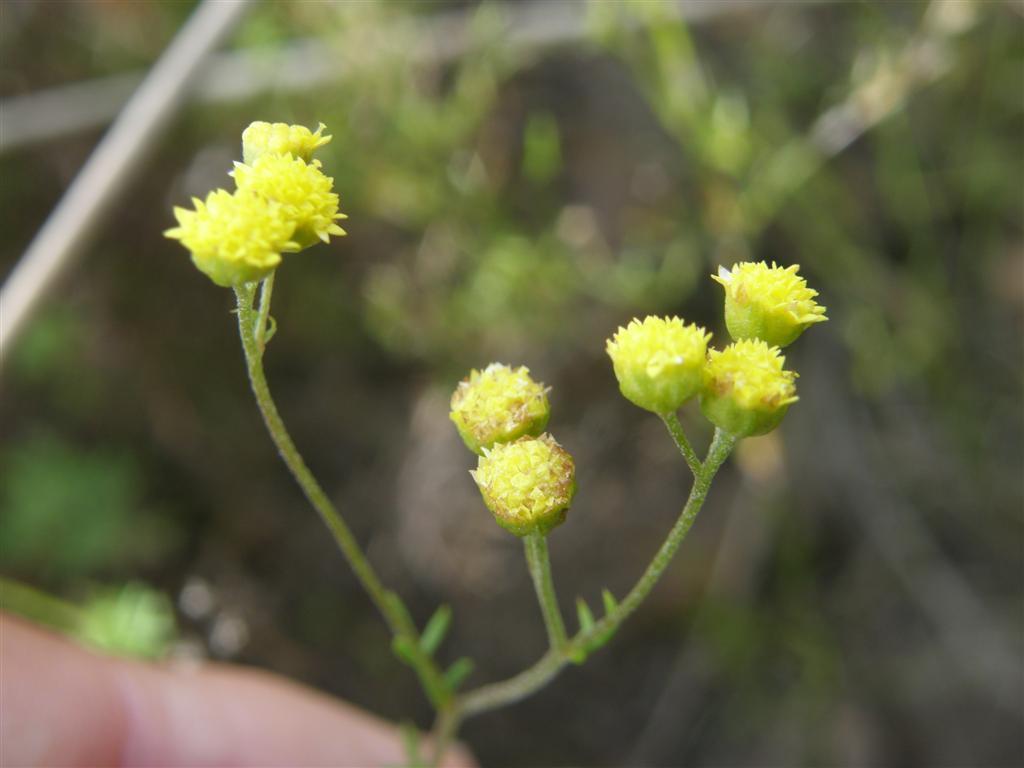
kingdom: Plantae
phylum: Tracheophyta
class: Magnoliopsida
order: Asterales
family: Asteraceae
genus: Hippia
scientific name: Hippia frutescens
